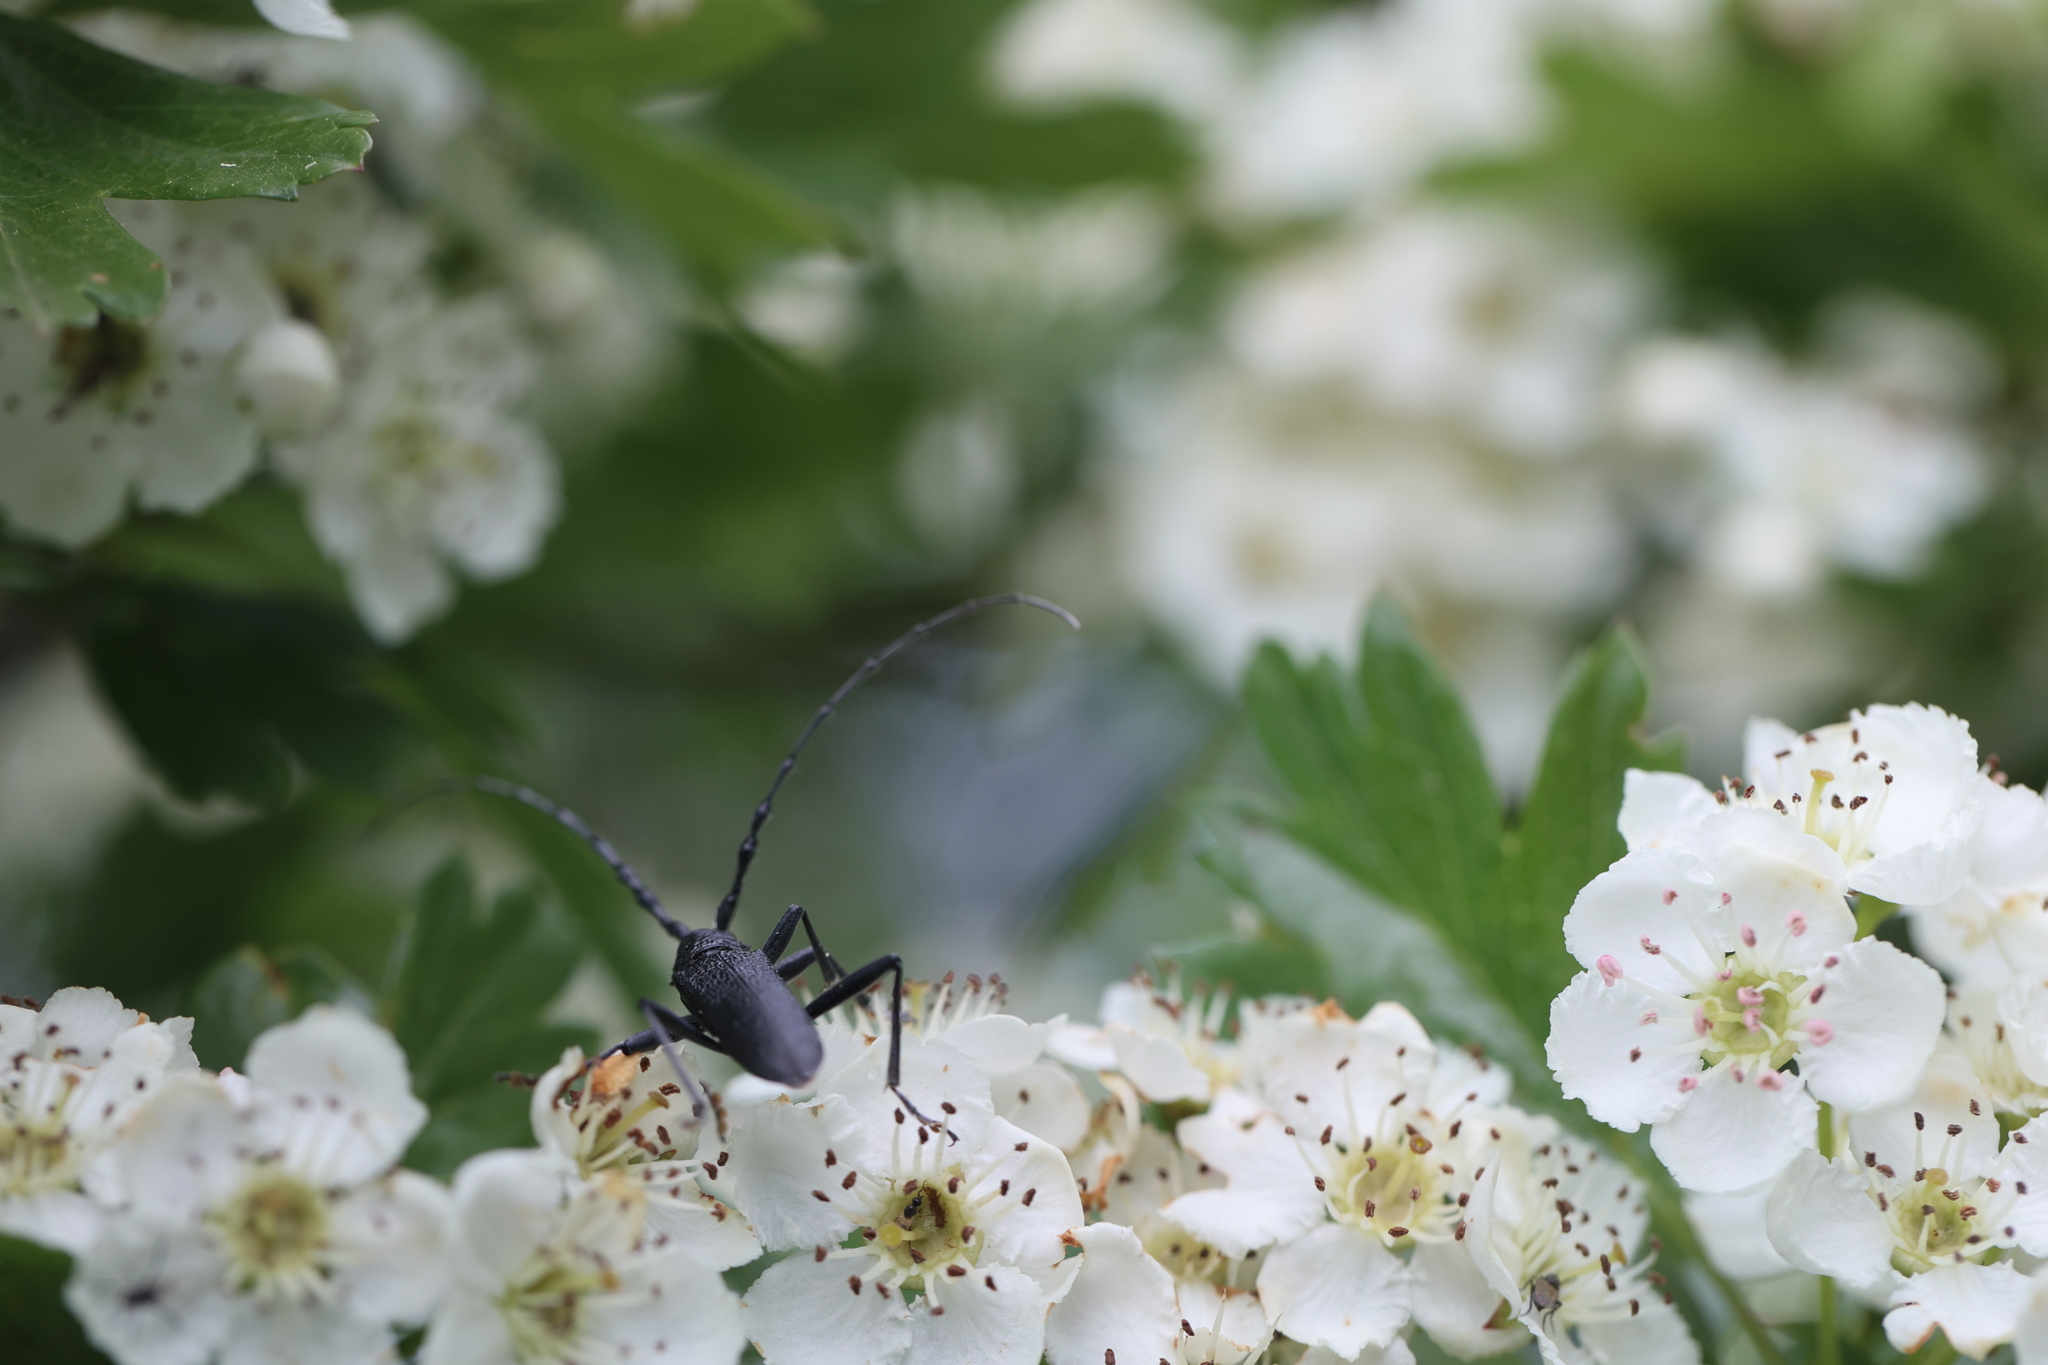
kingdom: Animalia
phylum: Arthropoda
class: Insecta
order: Coleoptera
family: Cerambycidae
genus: Cerambyx
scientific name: Cerambyx scopolii
